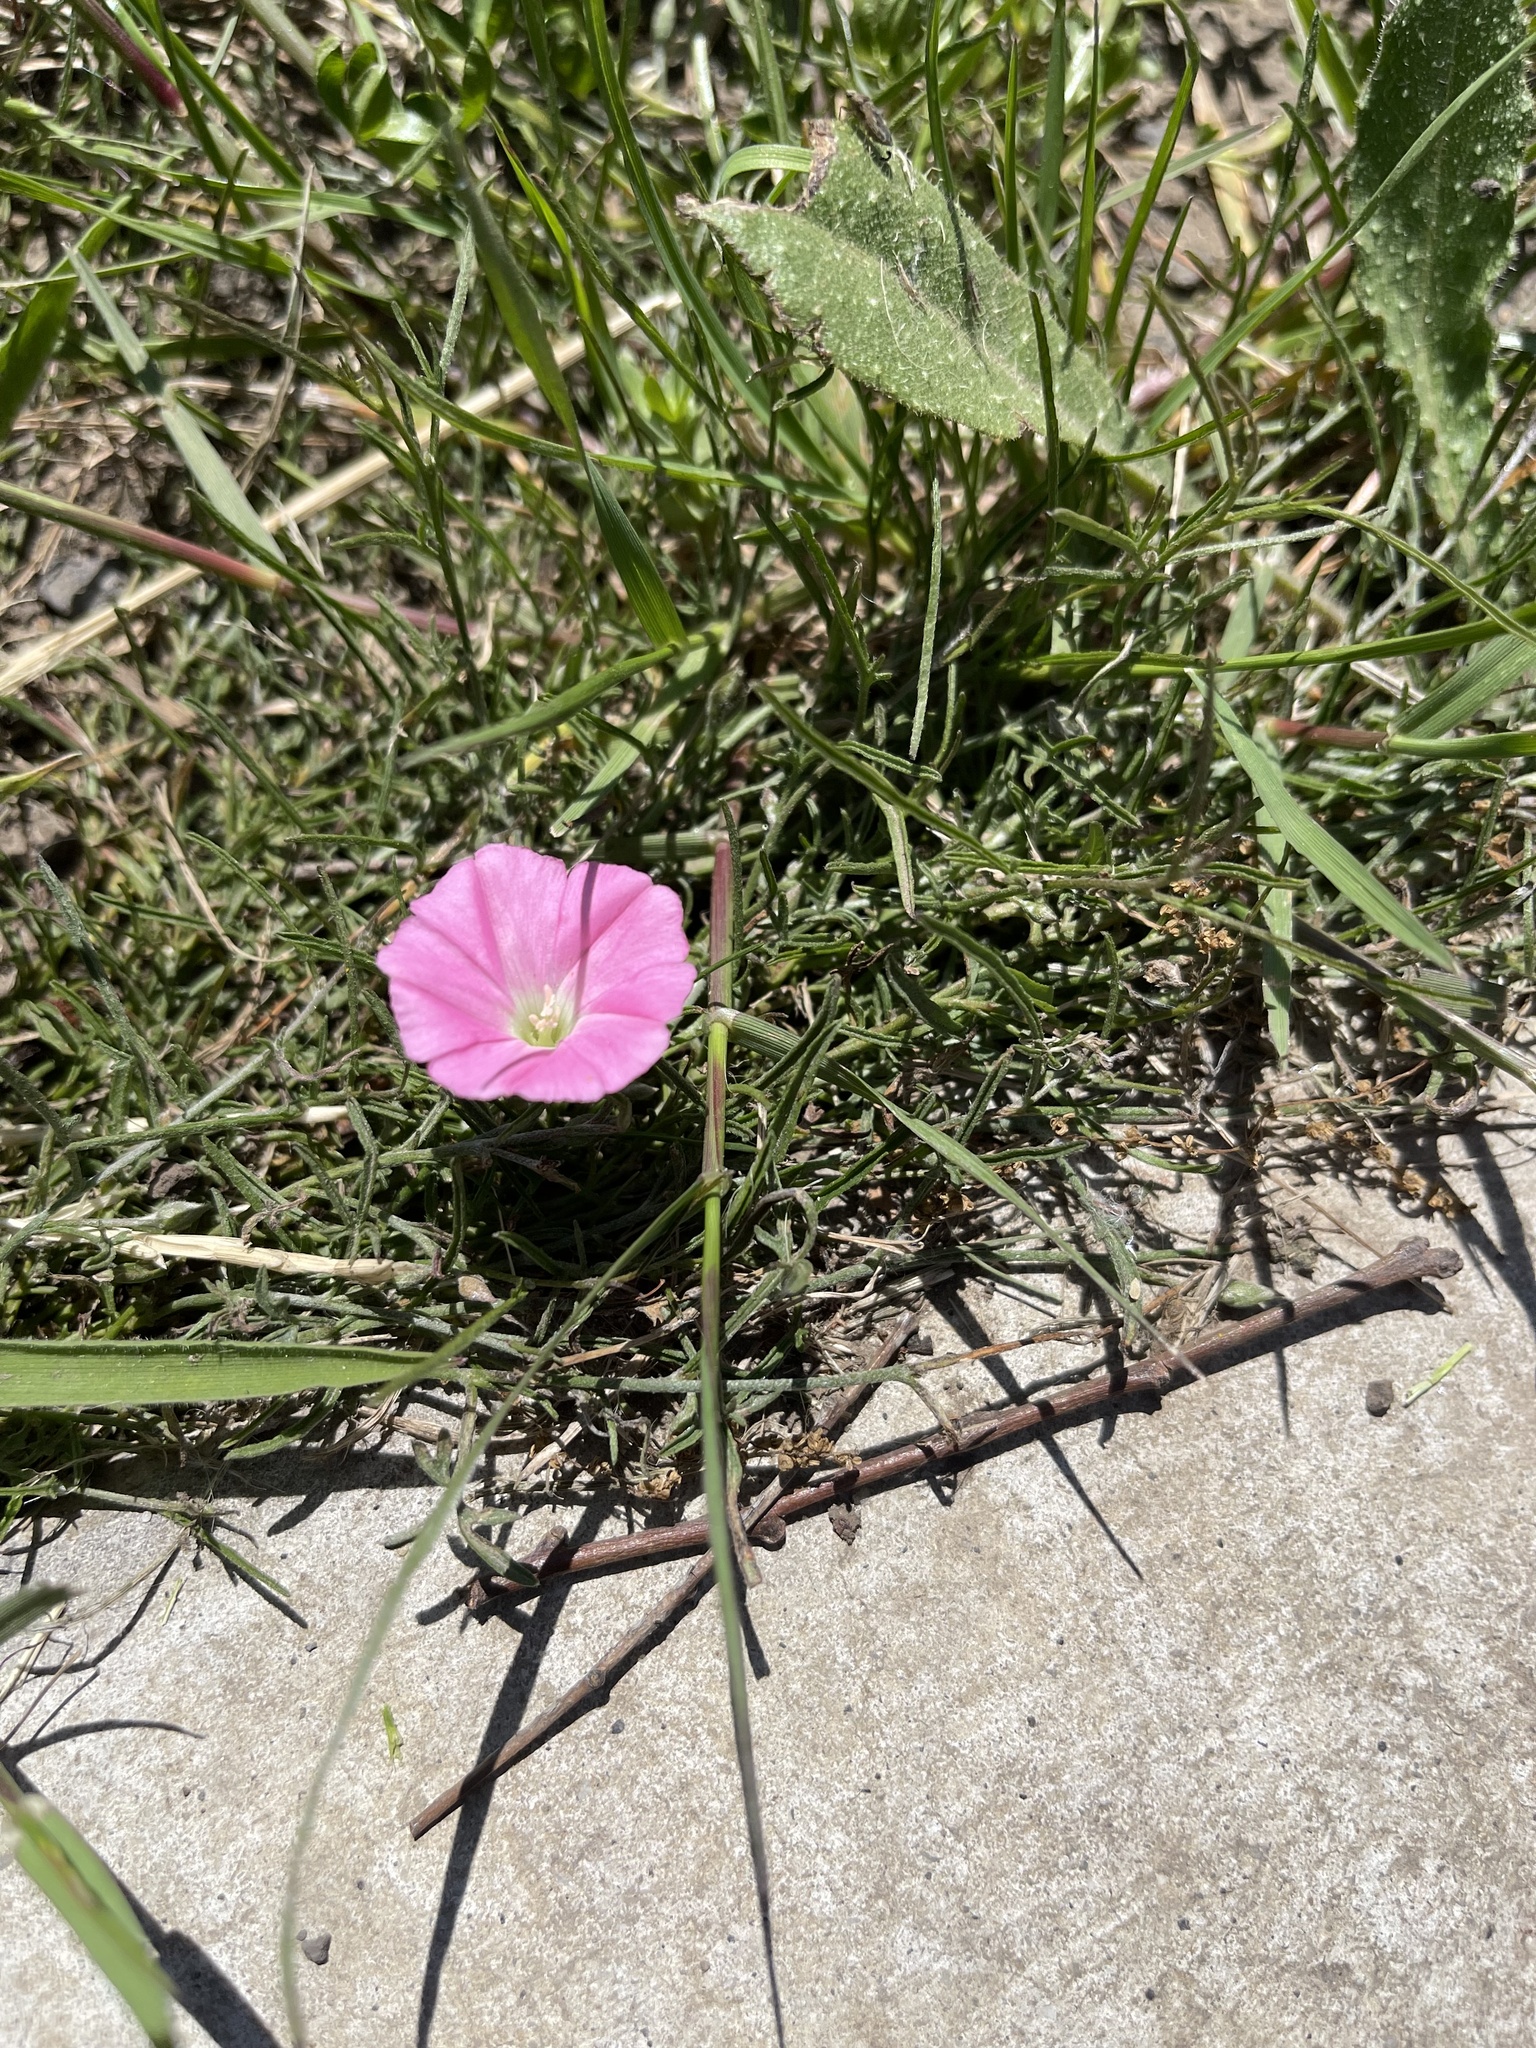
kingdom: Plantae
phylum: Tracheophyta
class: Magnoliopsida
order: Solanales
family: Convolvulaceae
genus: Convolvulus
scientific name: Convolvulus angustissimus
